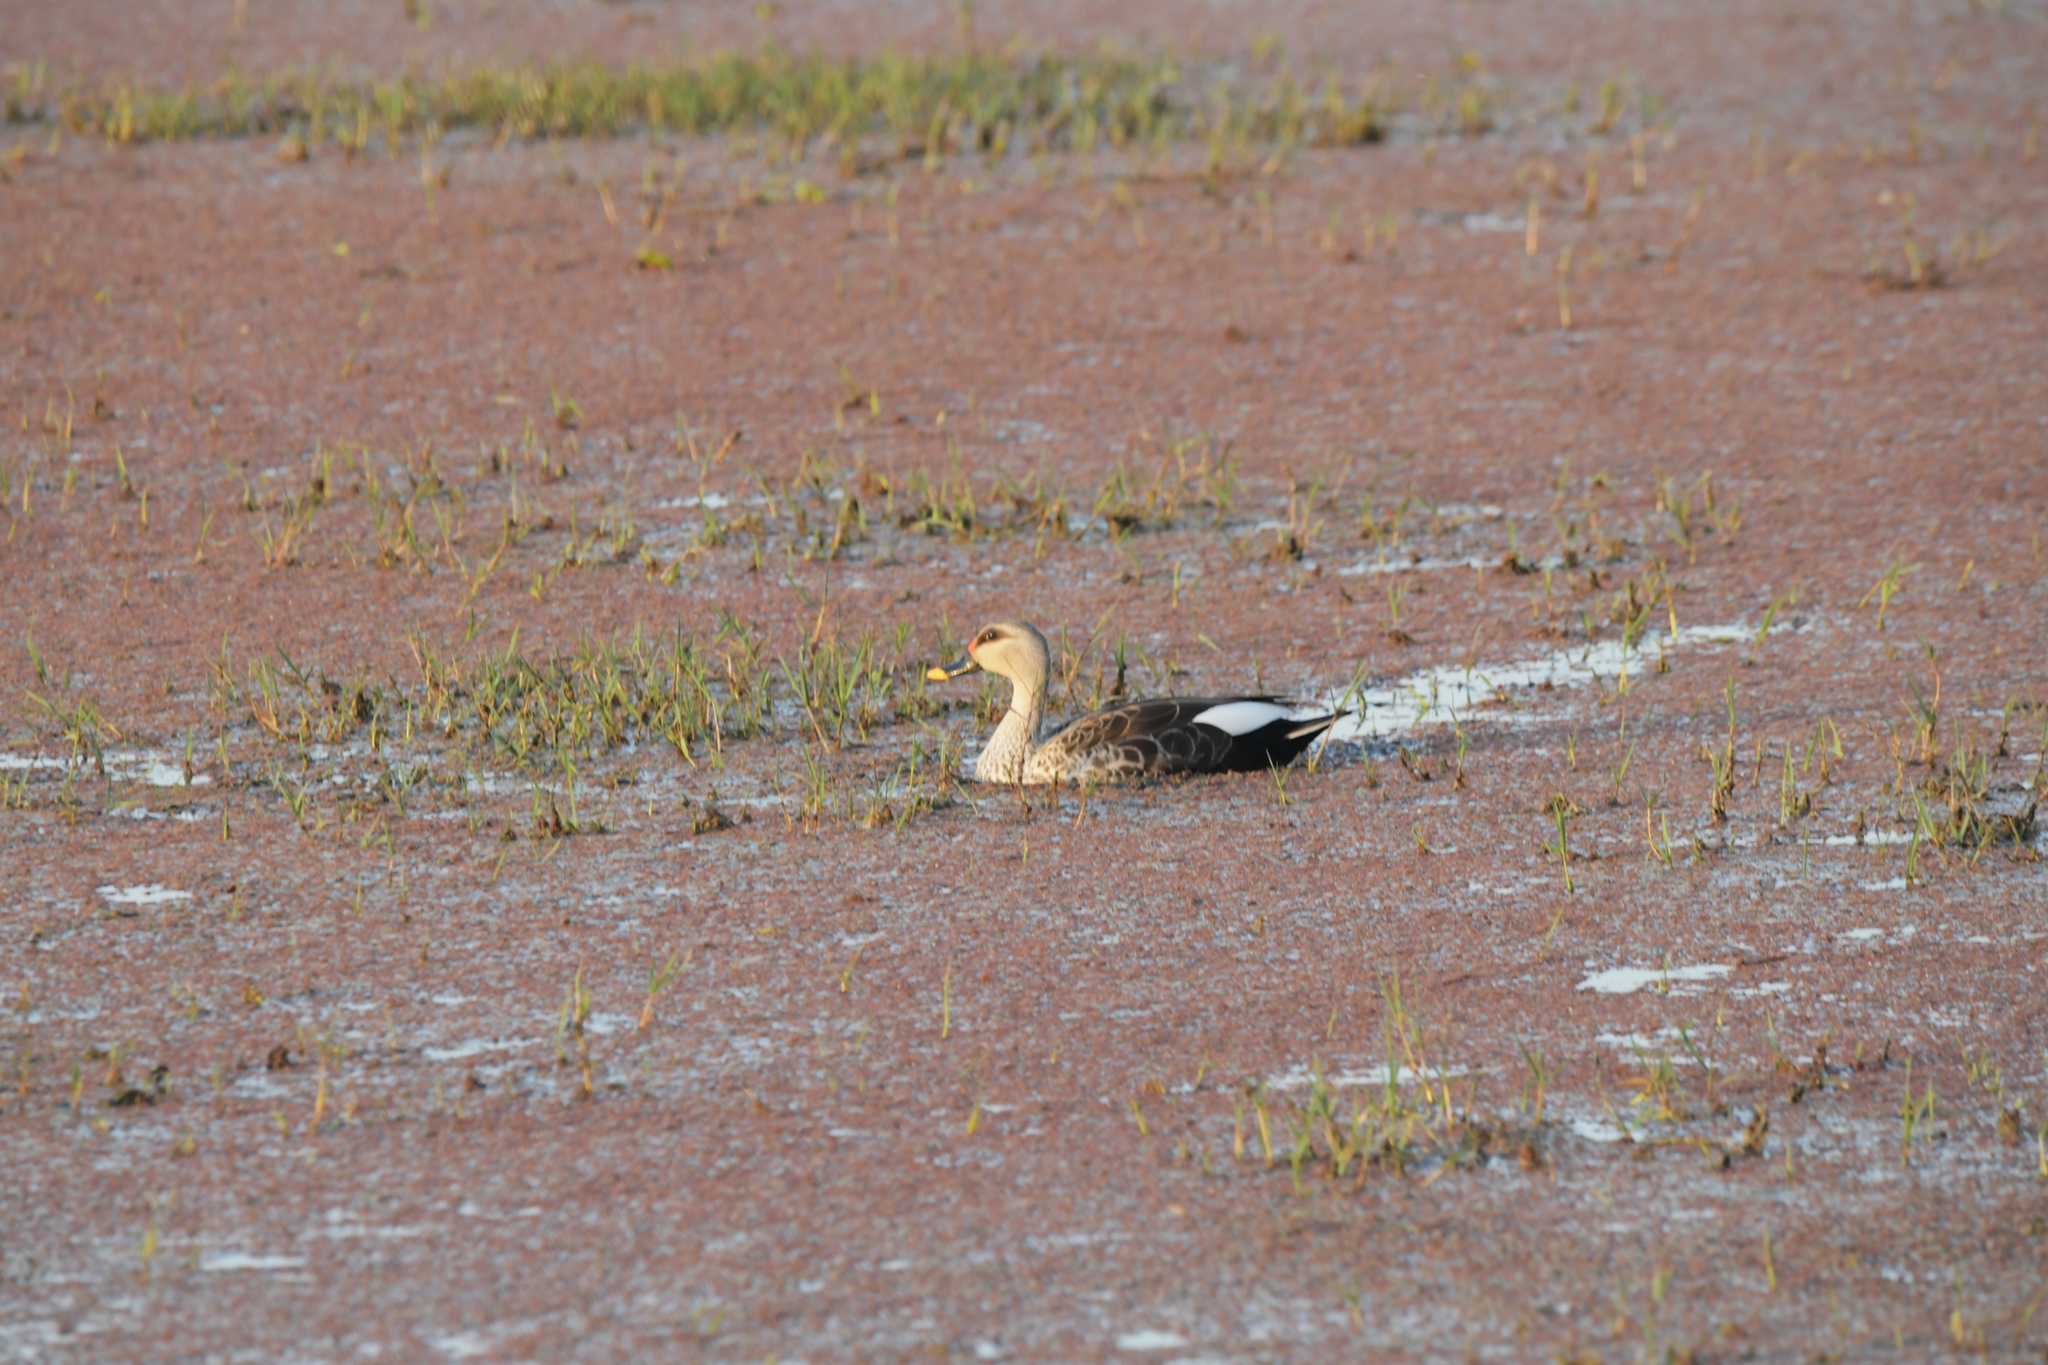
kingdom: Animalia
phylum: Chordata
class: Aves
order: Anseriformes
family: Anatidae
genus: Anas
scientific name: Anas poecilorhyncha
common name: Indian spot-billed duck
